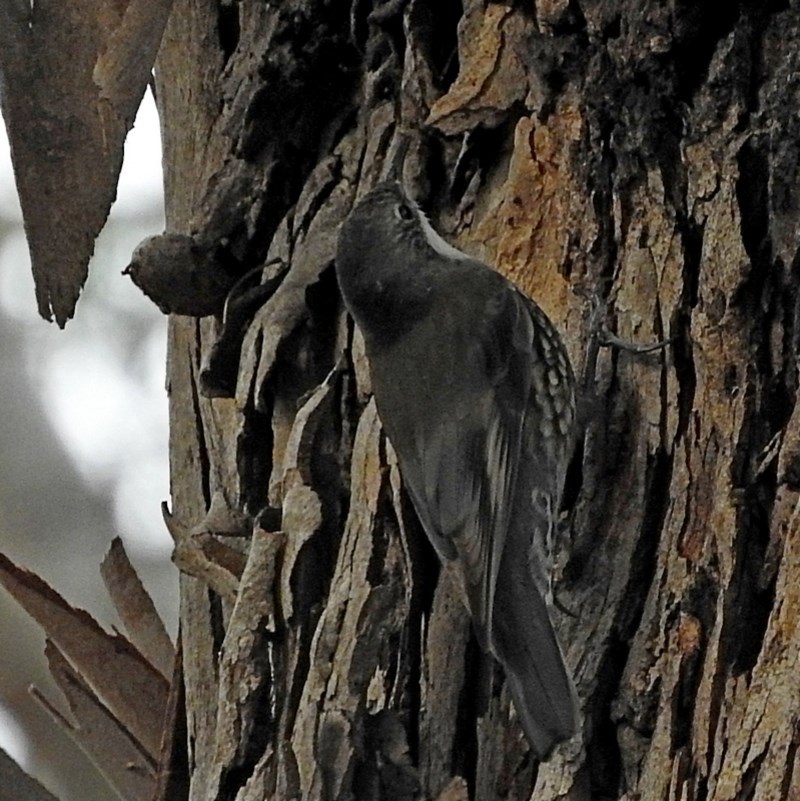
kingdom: Animalia
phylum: Chordata
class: Aves
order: Passeriformes
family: Climacteridae
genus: Cormobates
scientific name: Cormobates leucophaea
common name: White-throated treecreeper
